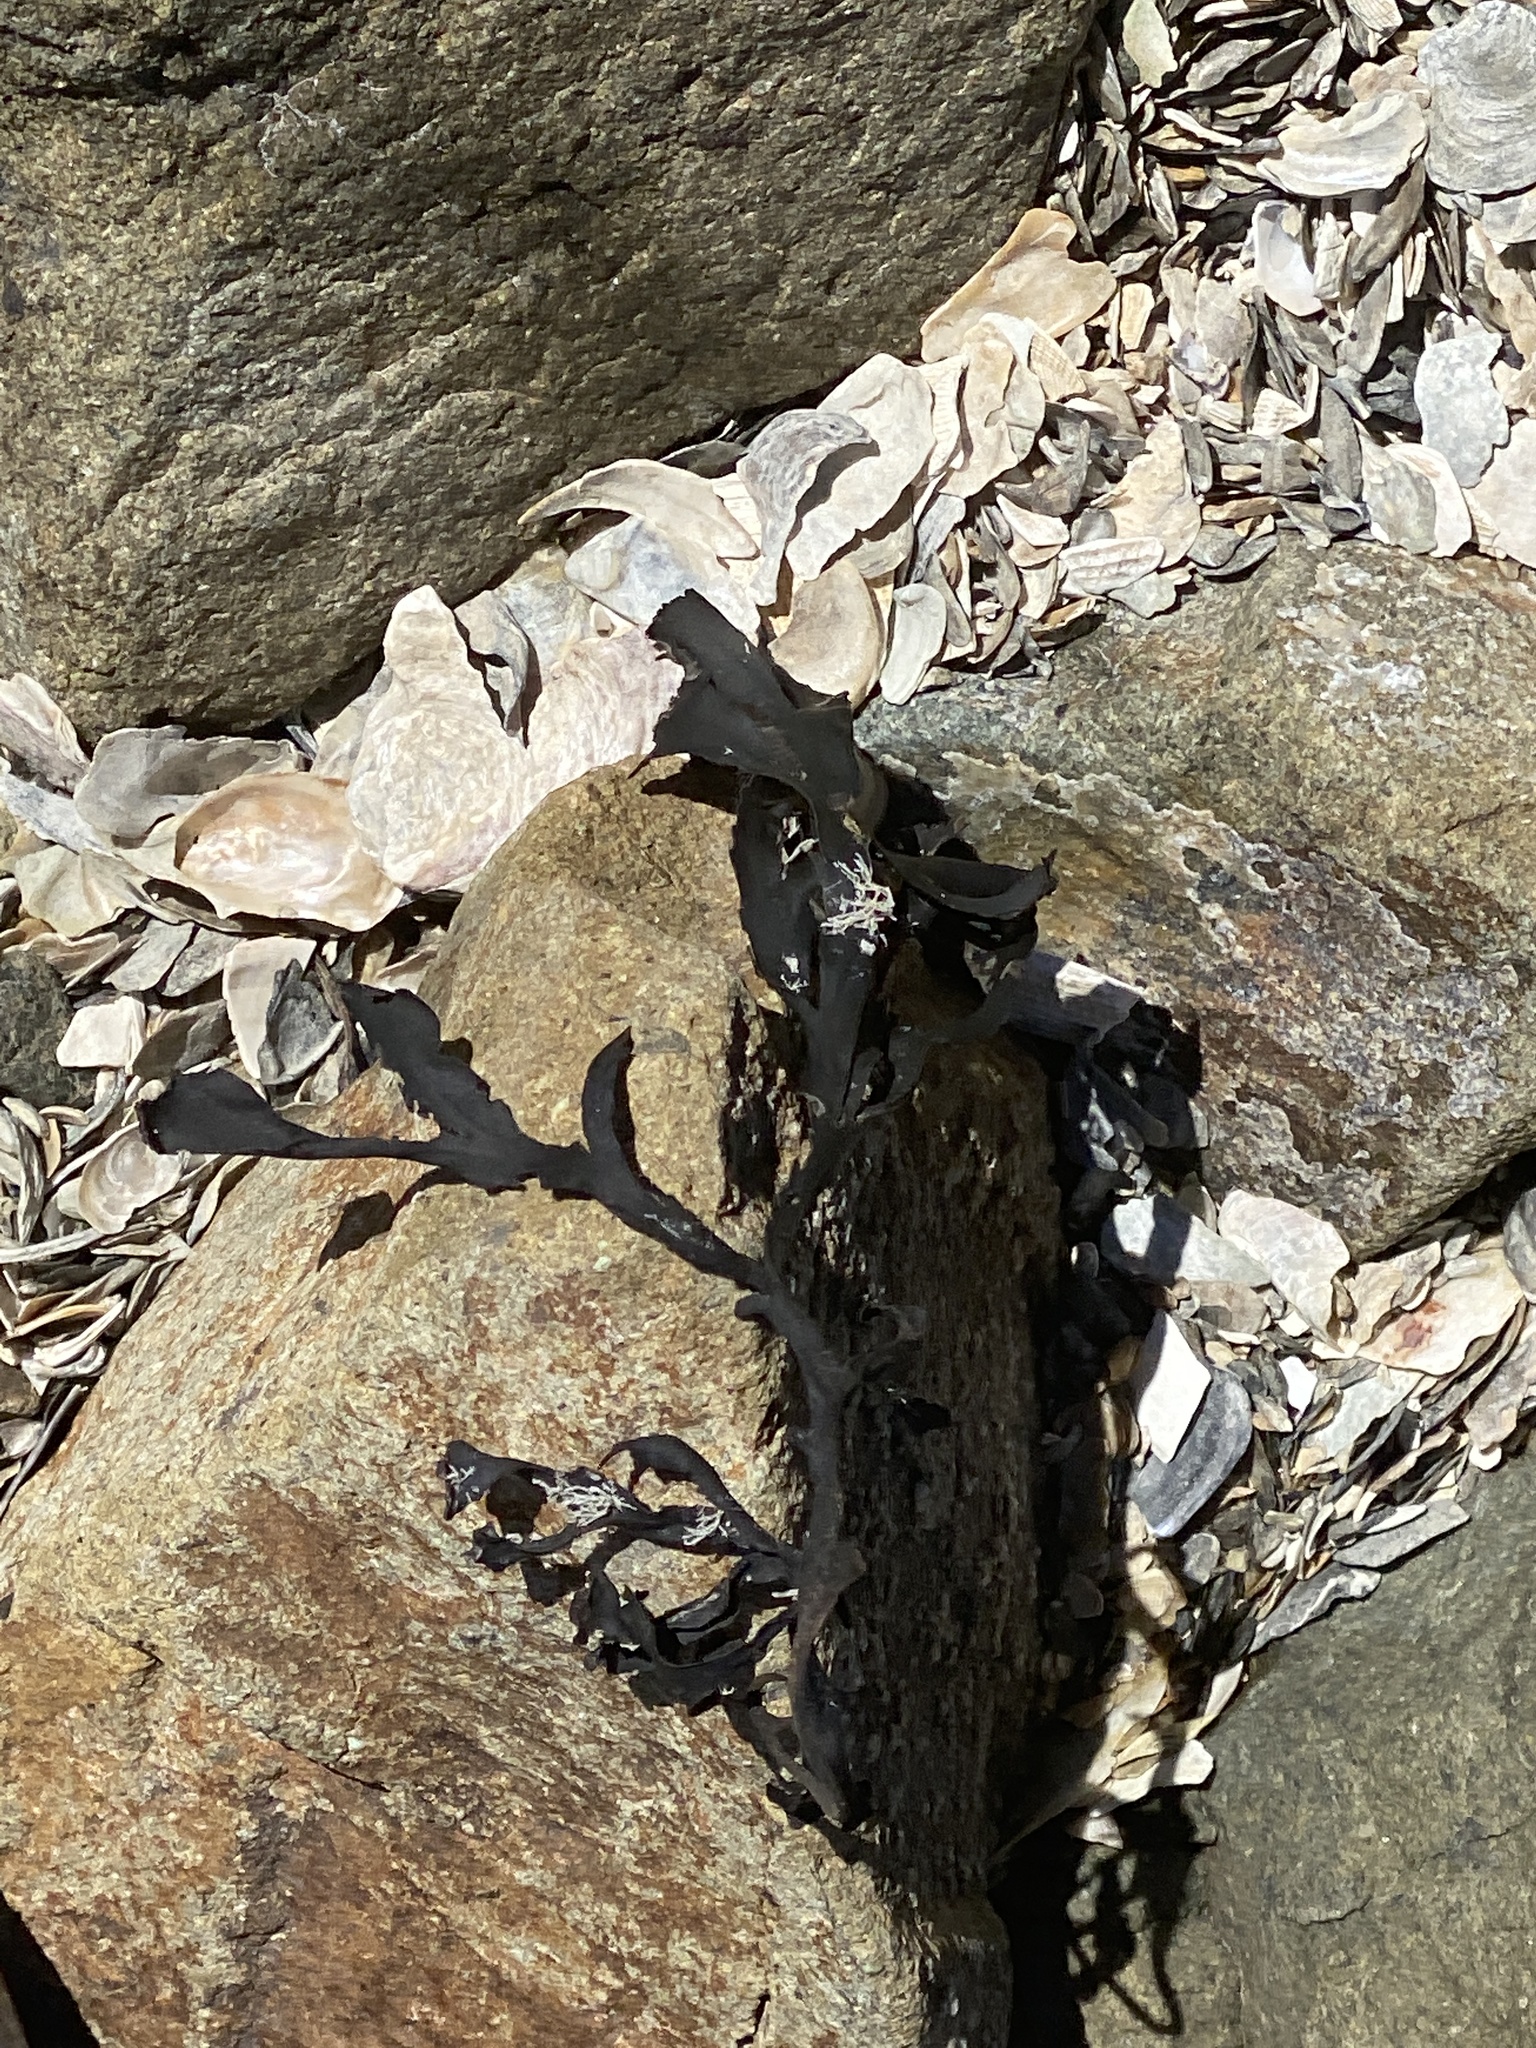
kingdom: Chromista
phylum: Ochrophyta
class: Phaeophyceae
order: Fucales
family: Fucaceae
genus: Fucus
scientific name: Fucus distichus
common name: Rockweed
